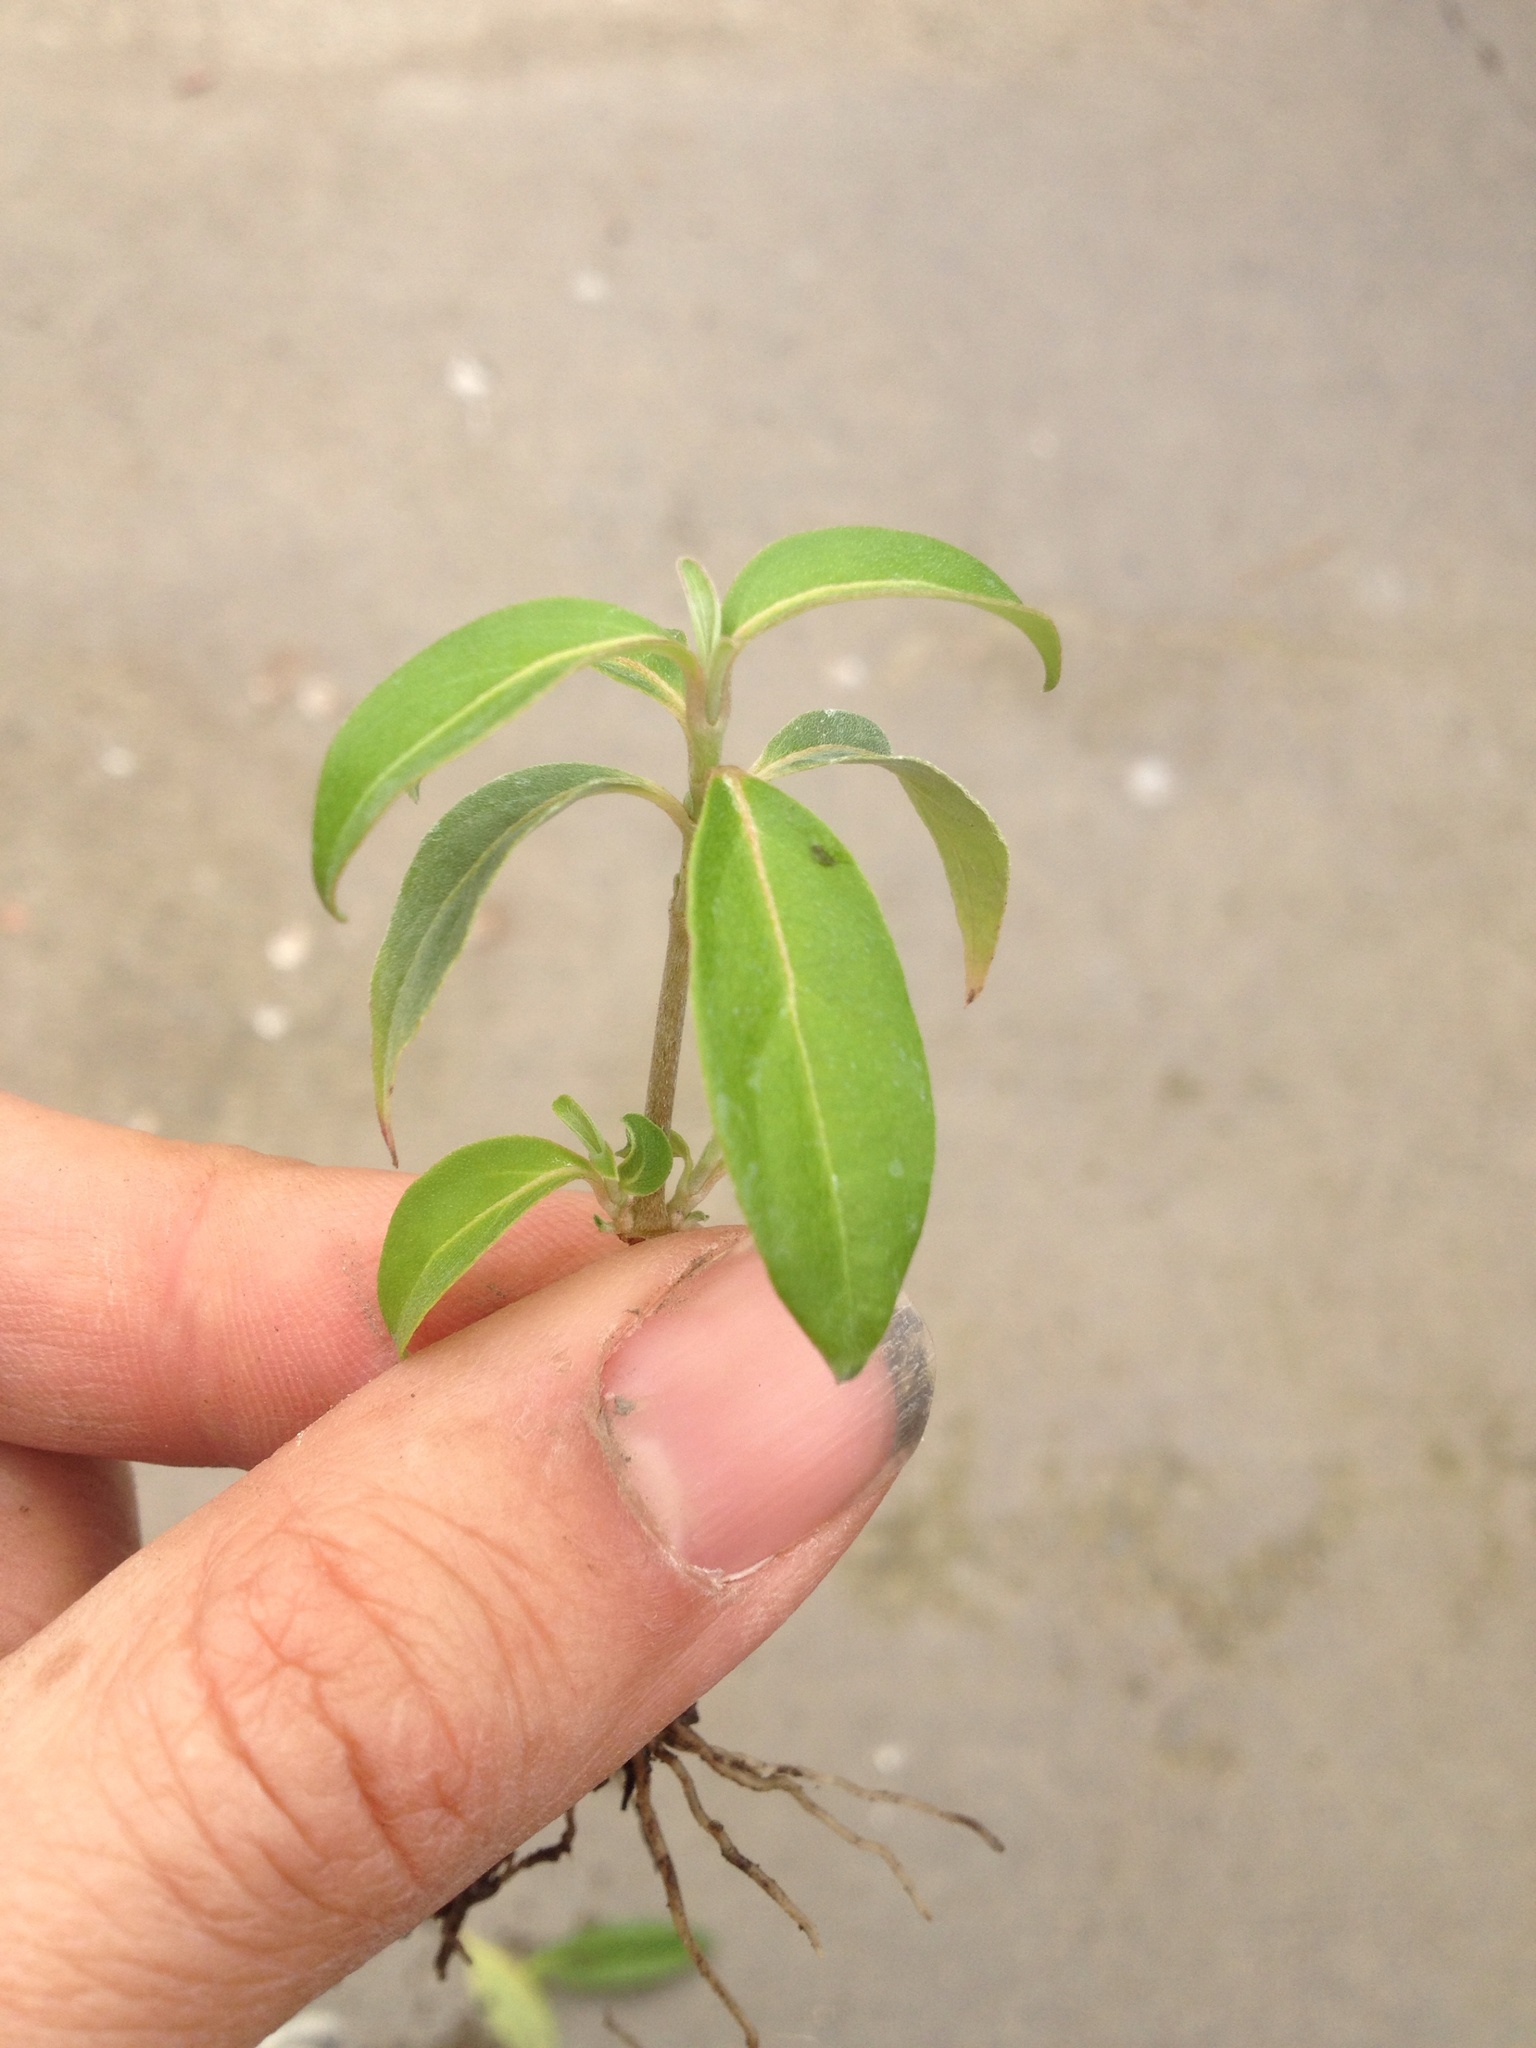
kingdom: Plantae
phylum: Tracheophyta
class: Magnoliopsida
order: Cornales
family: Cornaceae
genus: Cornus
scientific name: Cornus capitata
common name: Bentham's cornel
